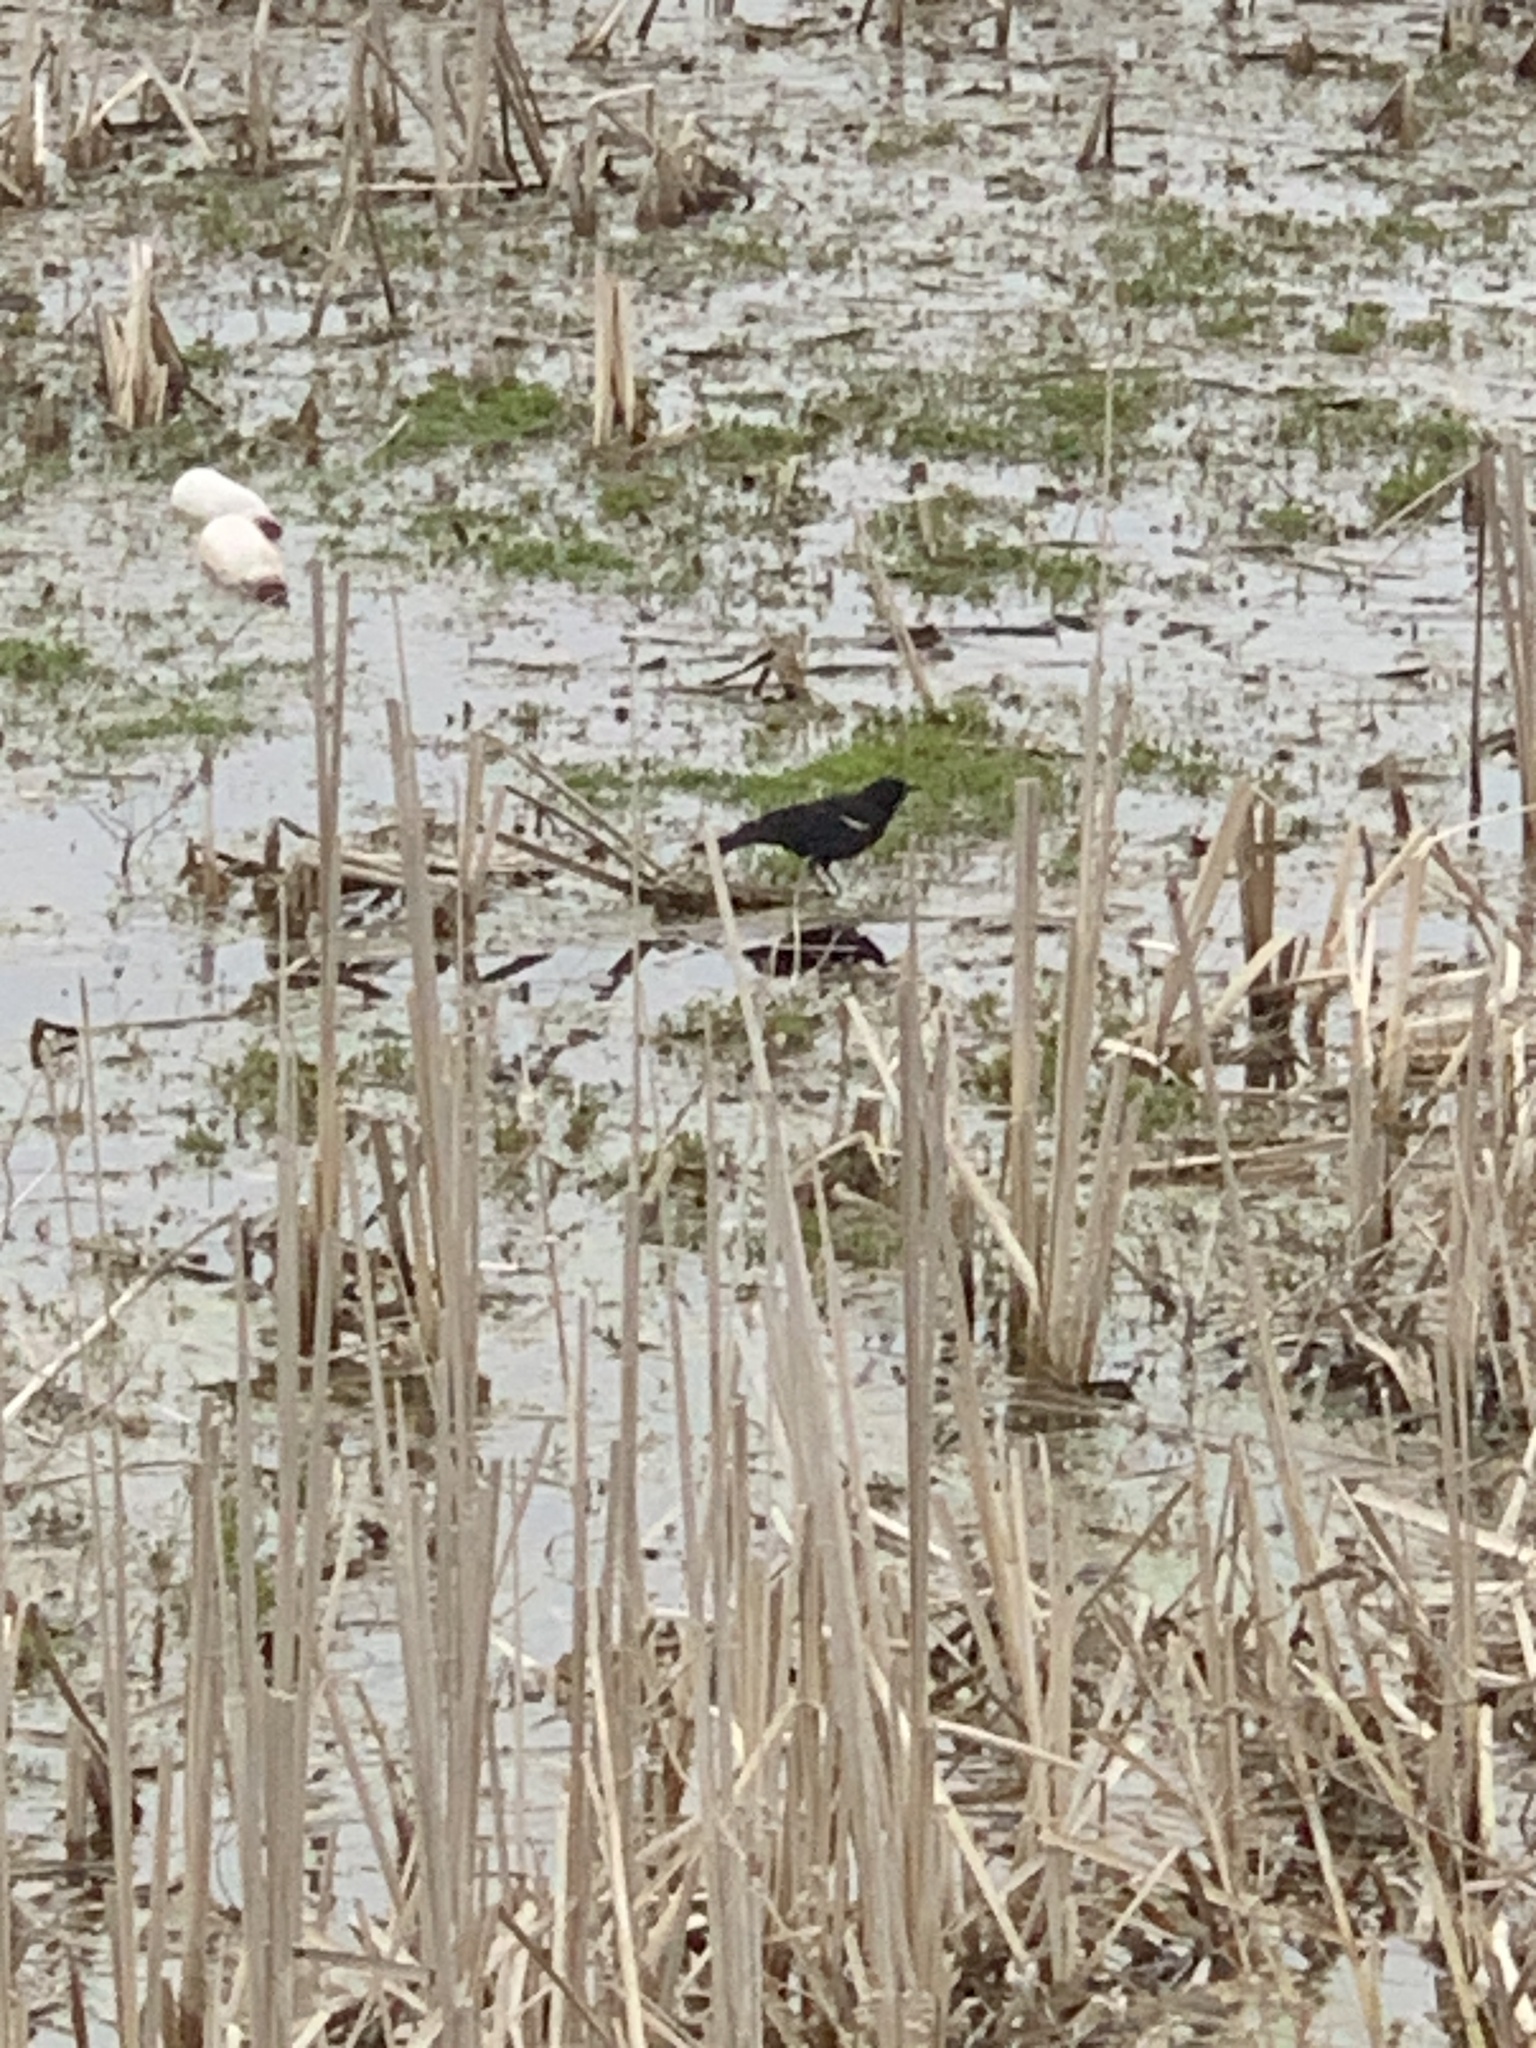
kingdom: Animalia
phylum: Chordata
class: Aves
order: Passeriformes
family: Icteridae
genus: Agelaius
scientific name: Agelaius phoeniceus
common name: Red-winged blackbird
